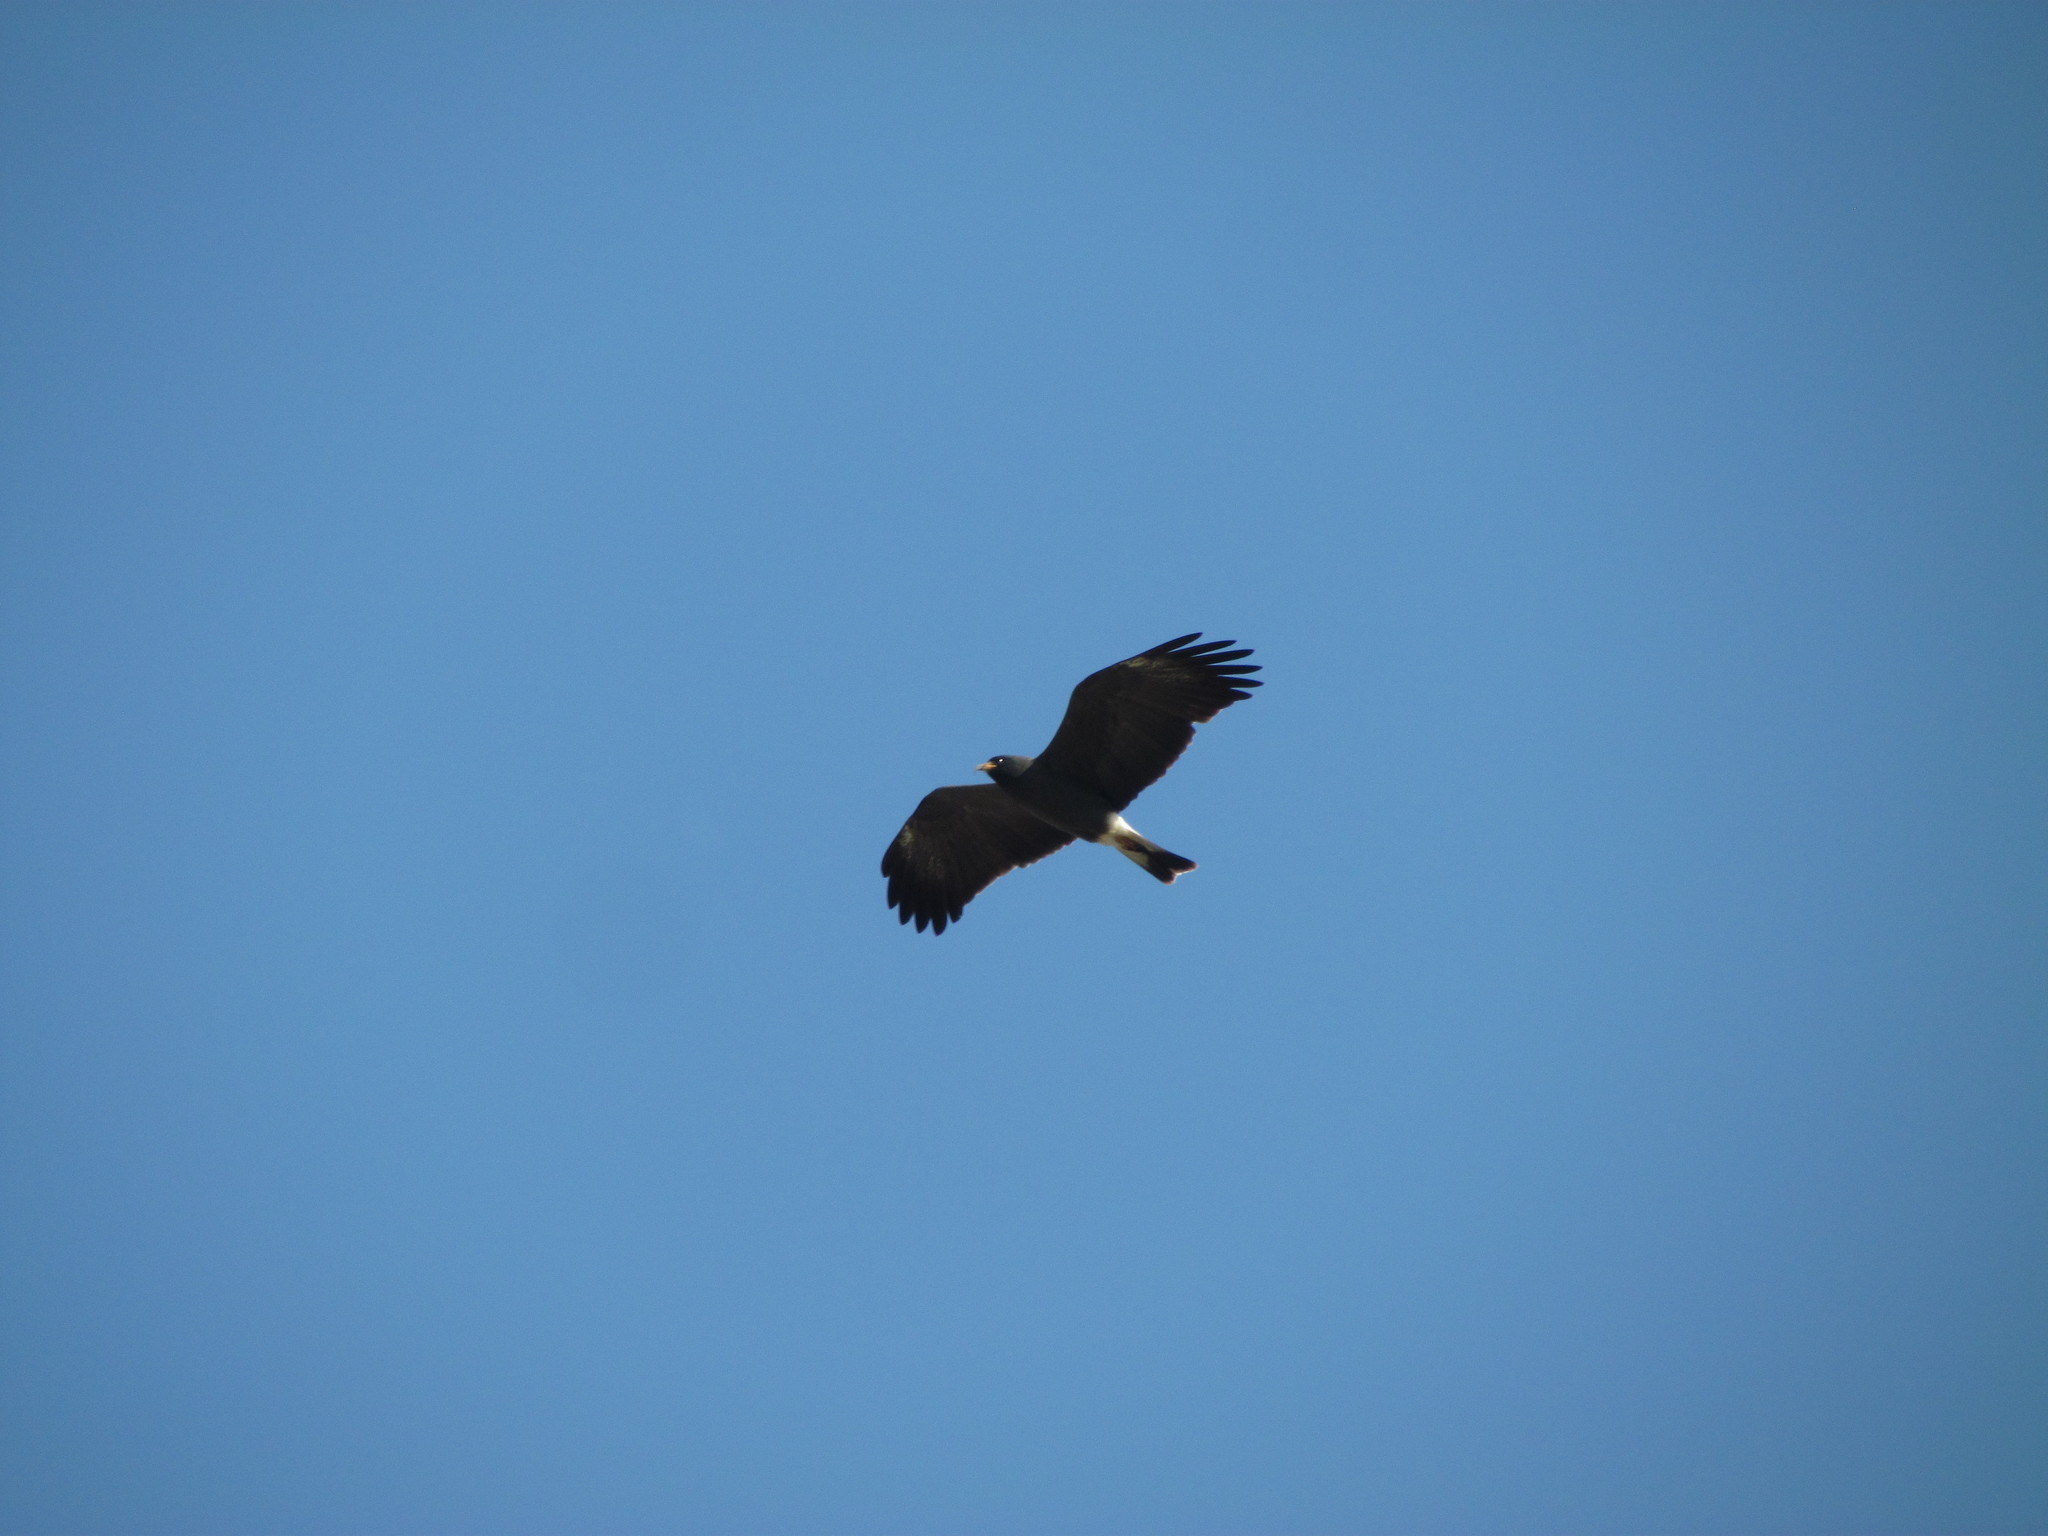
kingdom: Animalia
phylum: Chordata
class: Aves
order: Accipitriformes
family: Accipitridae
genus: Rostrhamus
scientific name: Rostrhamus sociabilis
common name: Snail kite
